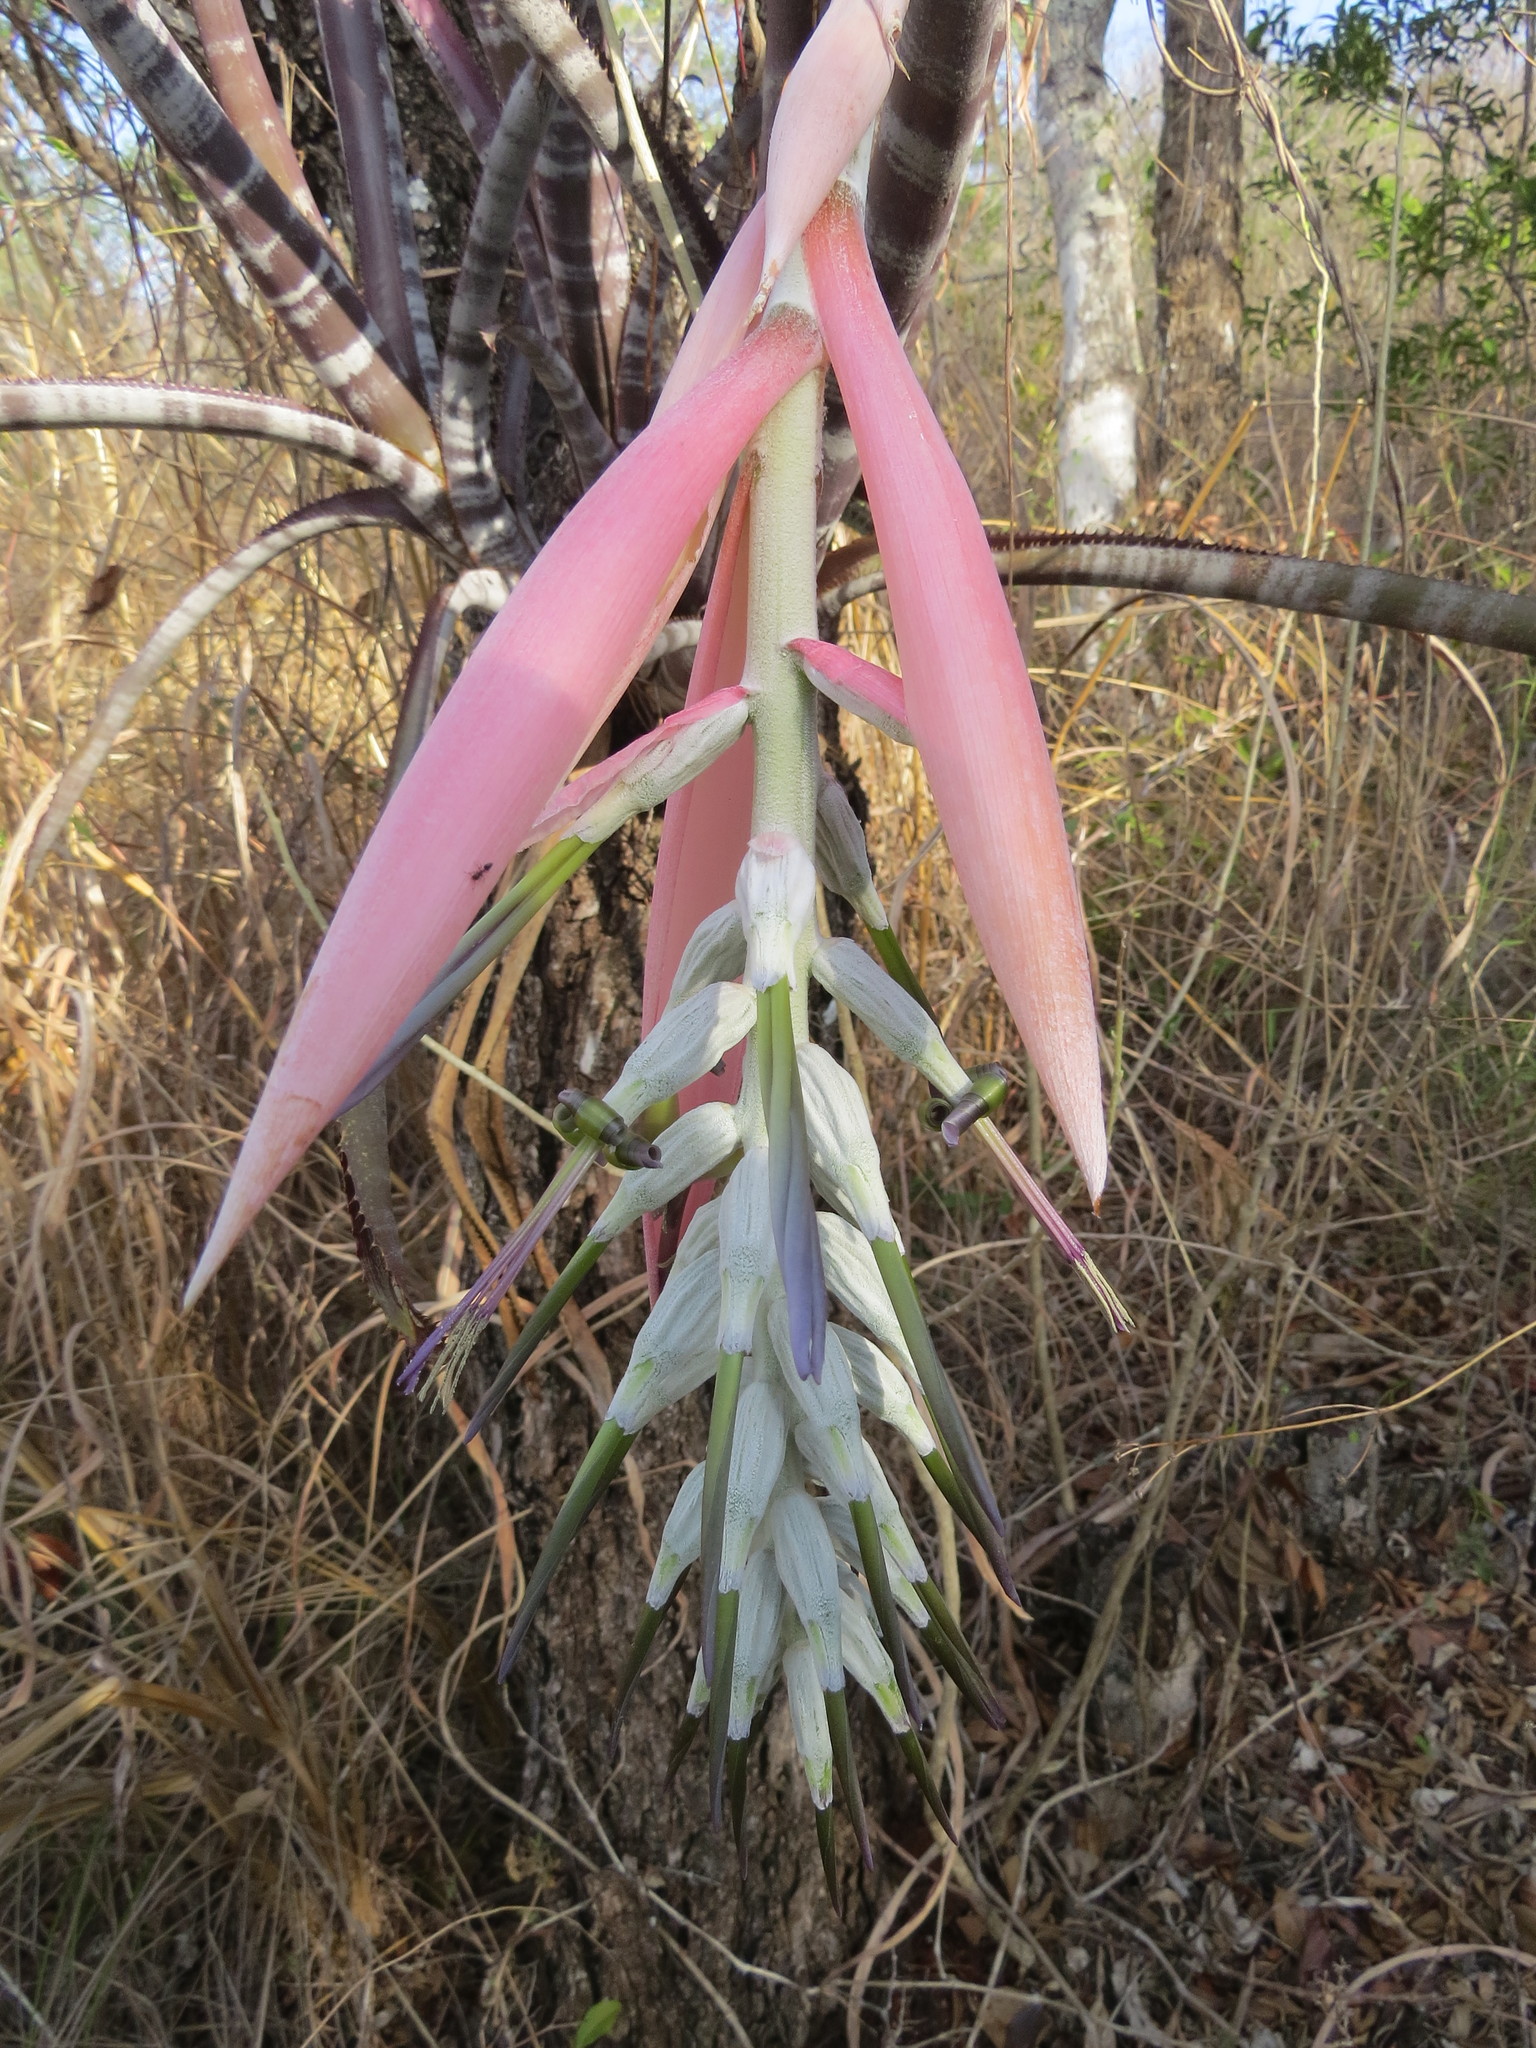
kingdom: Plantae
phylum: Tracheophyta
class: Liliopsida
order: Poales
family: Bromeliaceae
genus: Billbergia
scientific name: Billbergia pallidiflora
